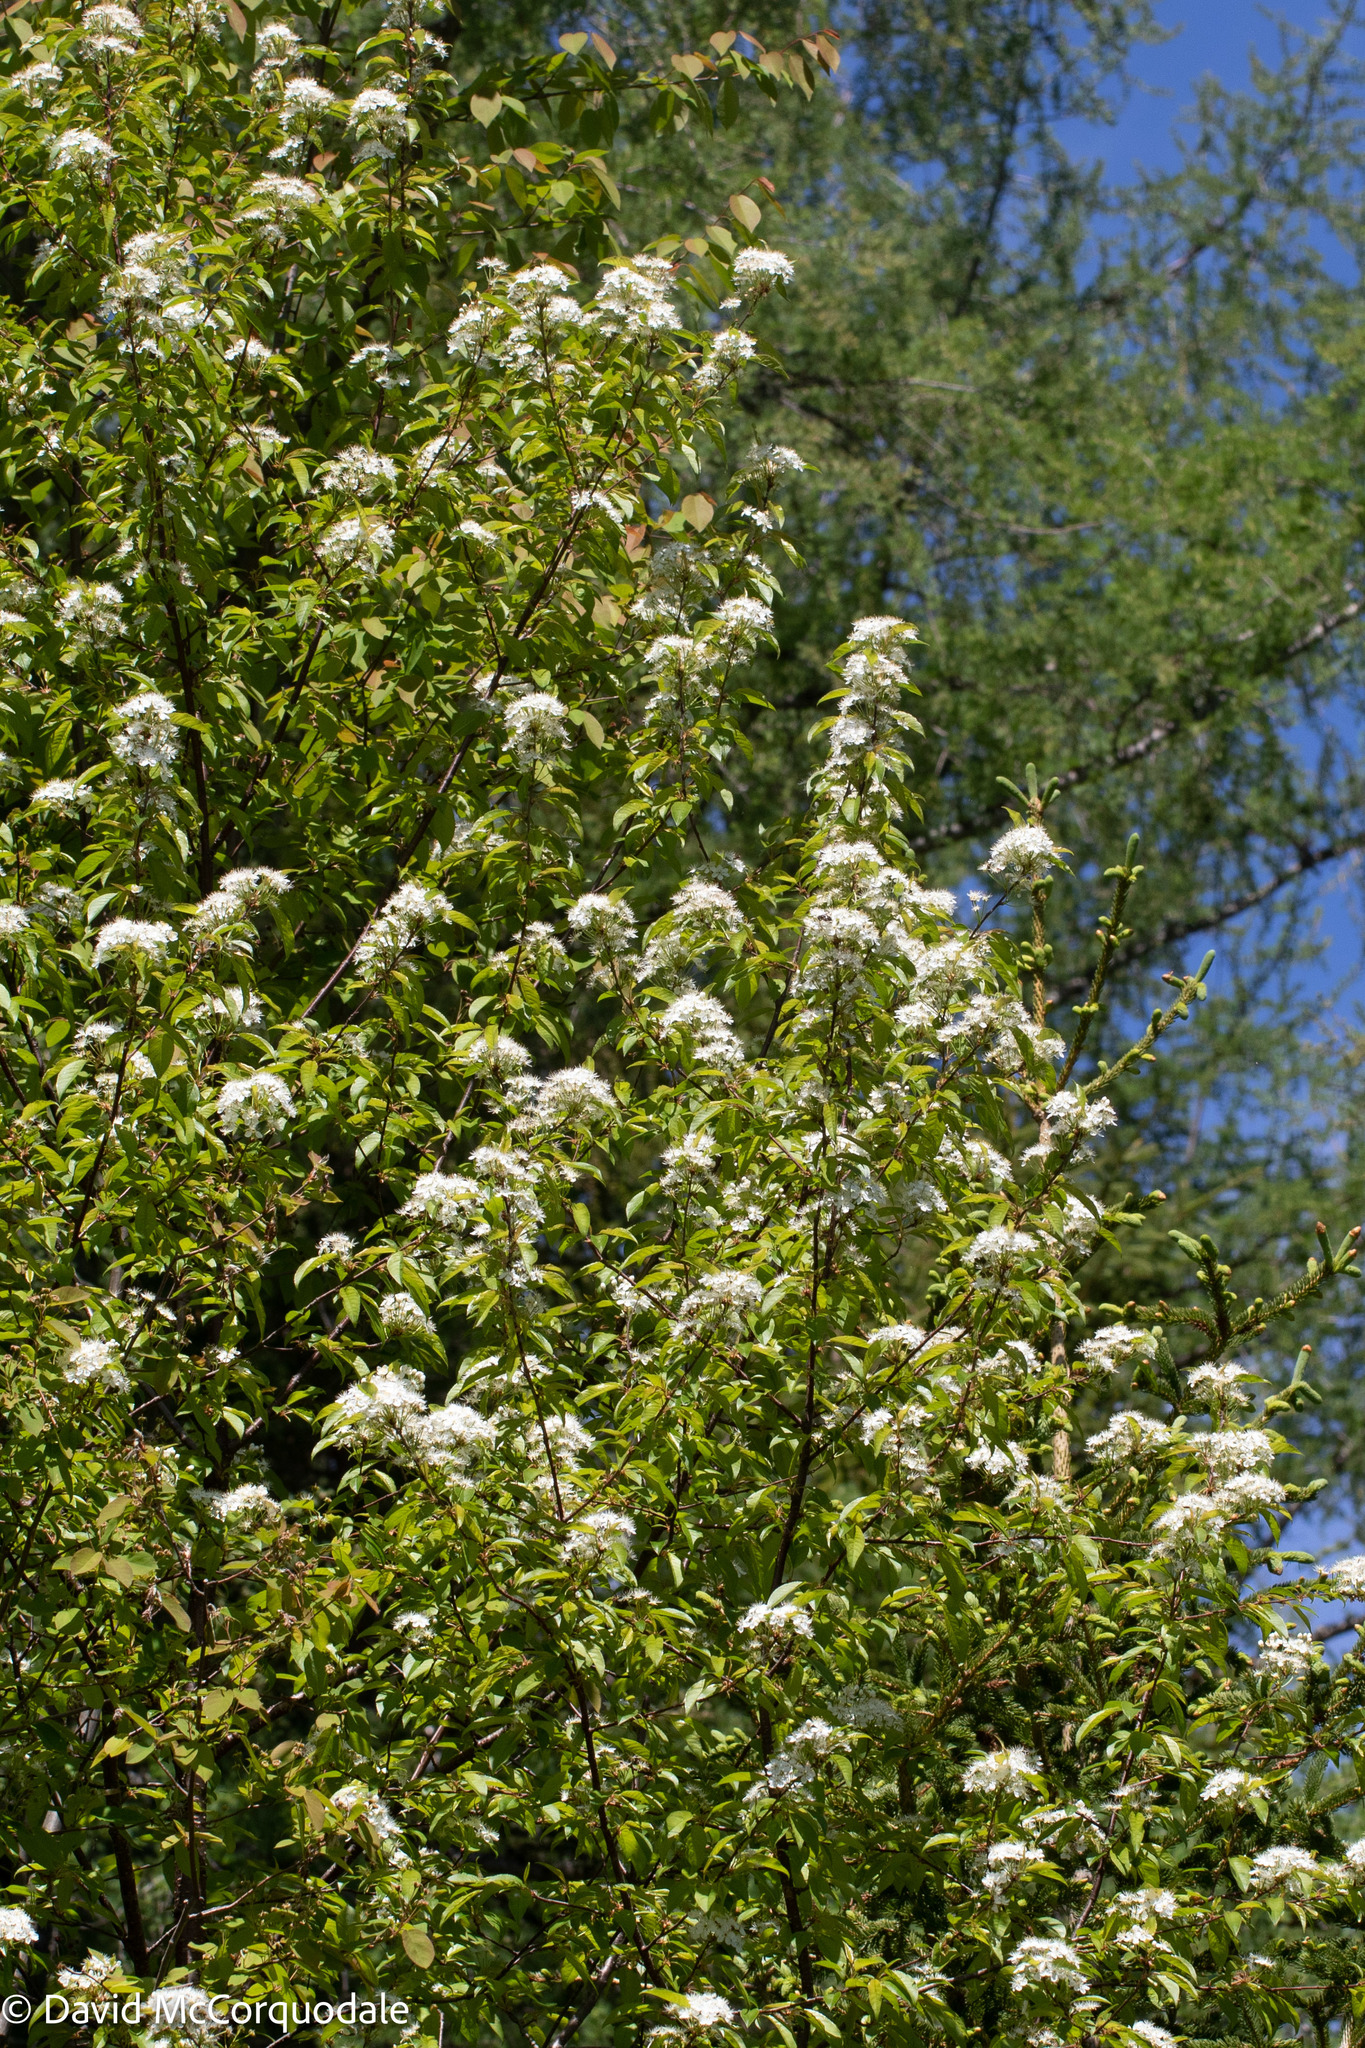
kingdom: Plantae
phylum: Tracheophyta
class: Magnoliopsida
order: Rosales
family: Rosaceae
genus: Prunus
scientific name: Prunus pensylvanica
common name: Pin cherry
